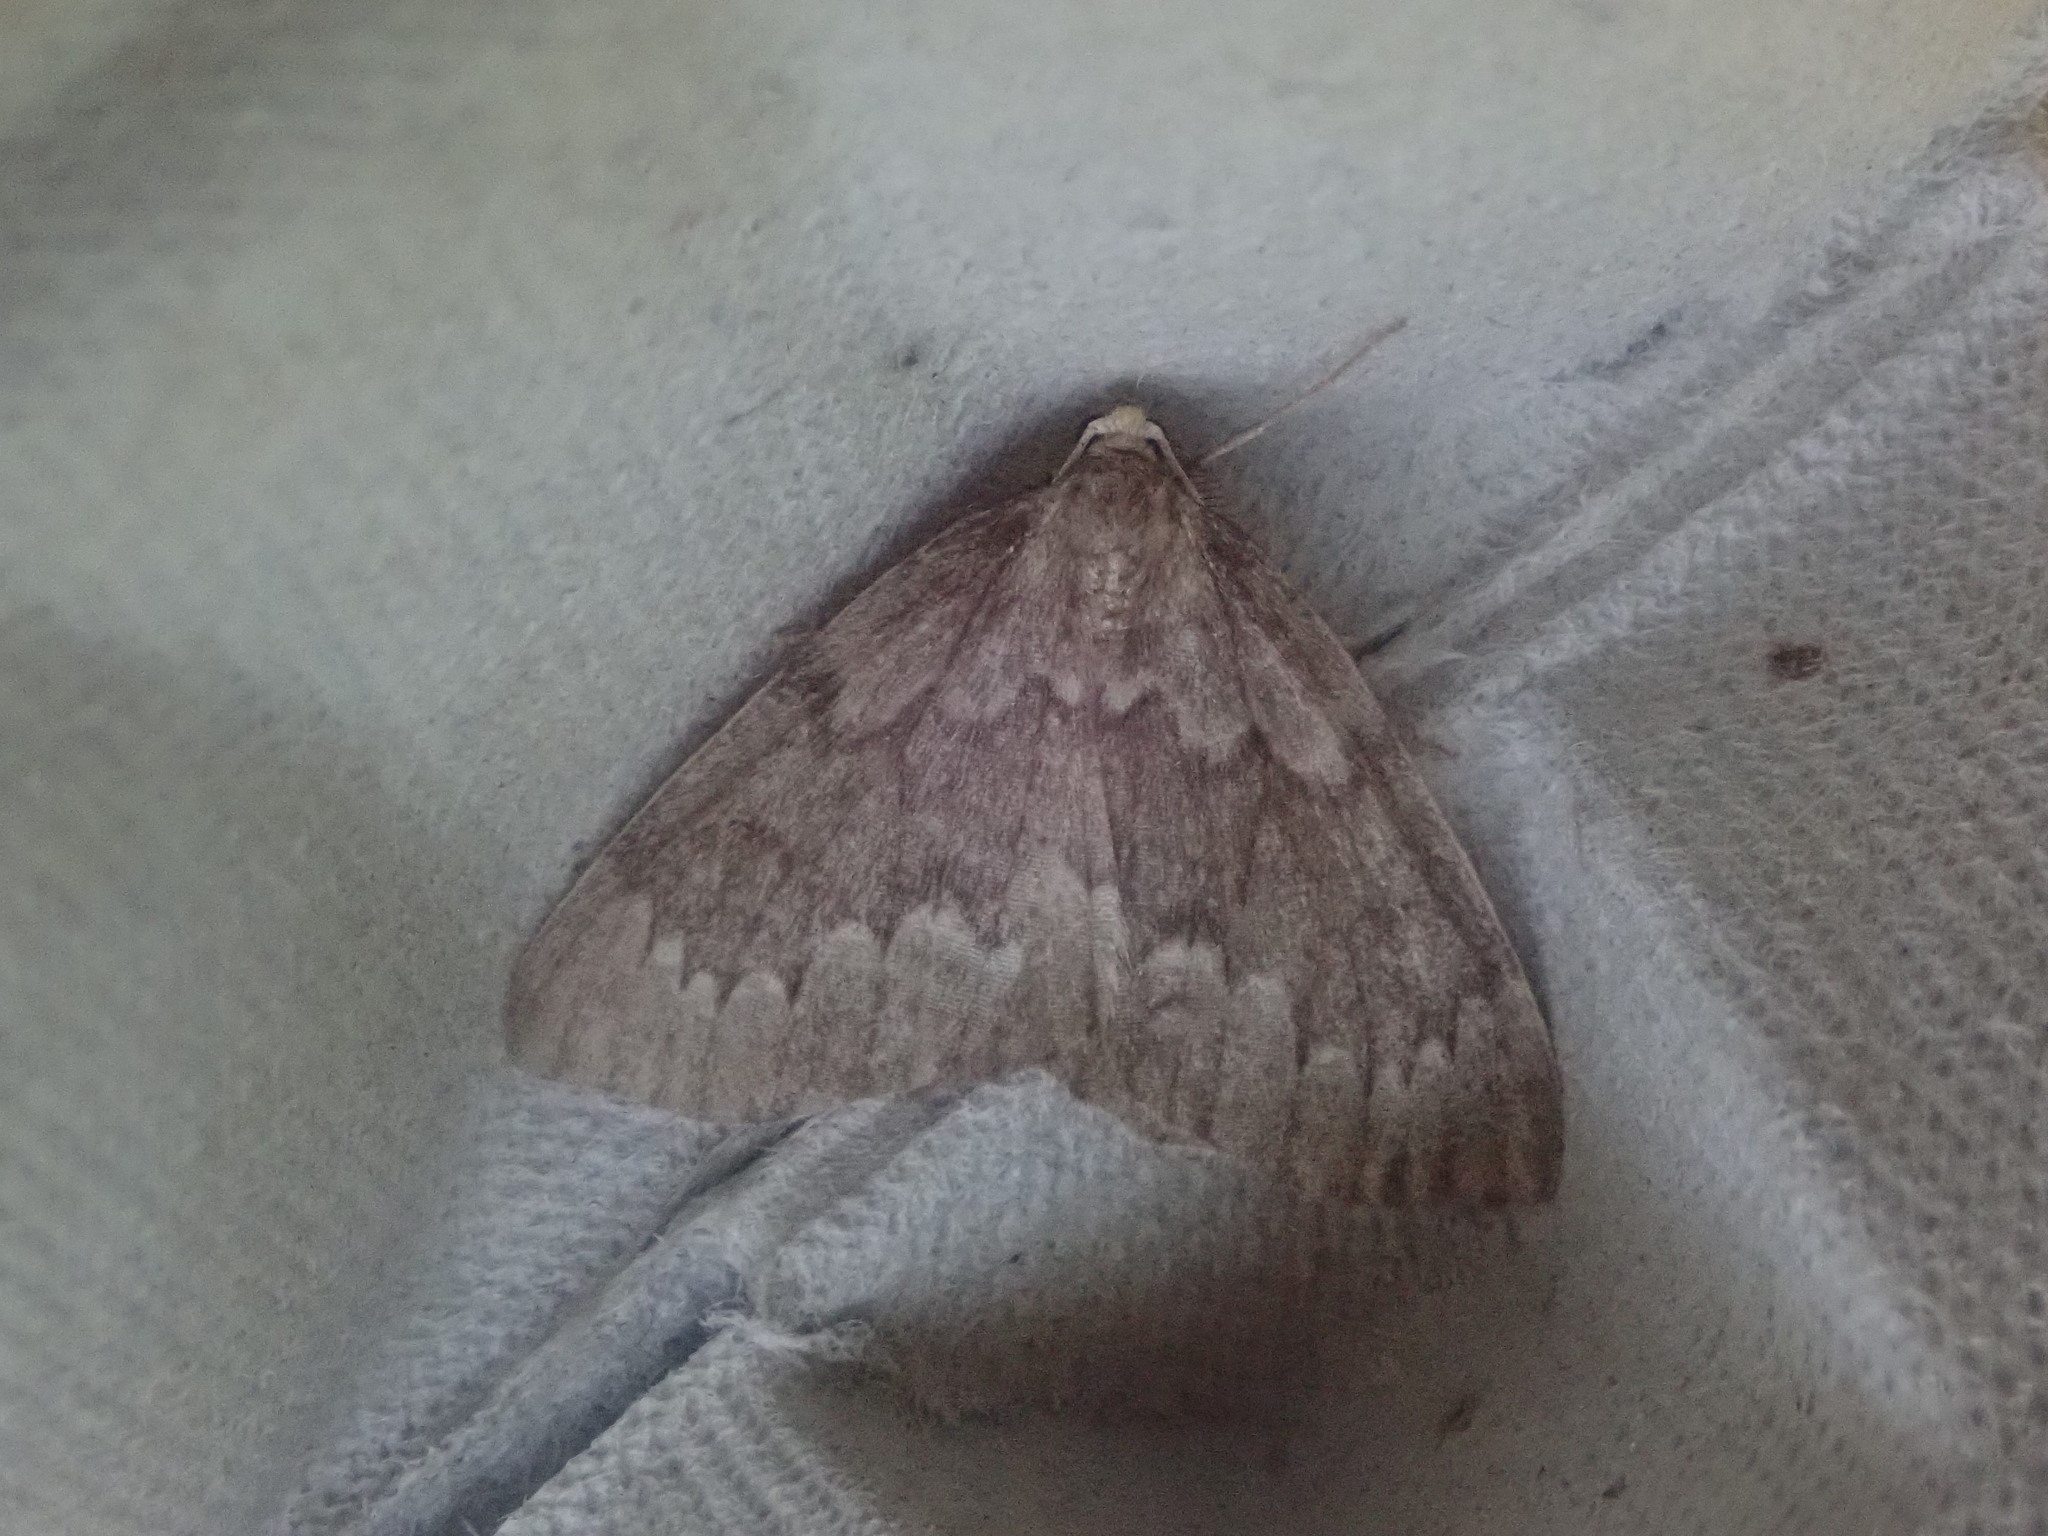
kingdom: Animalia
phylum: Arthropoda
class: Insecta
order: Lepidoptera
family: Geometridae
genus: Nepytia
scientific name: Nepytia canosaria
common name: False hemlock looper
